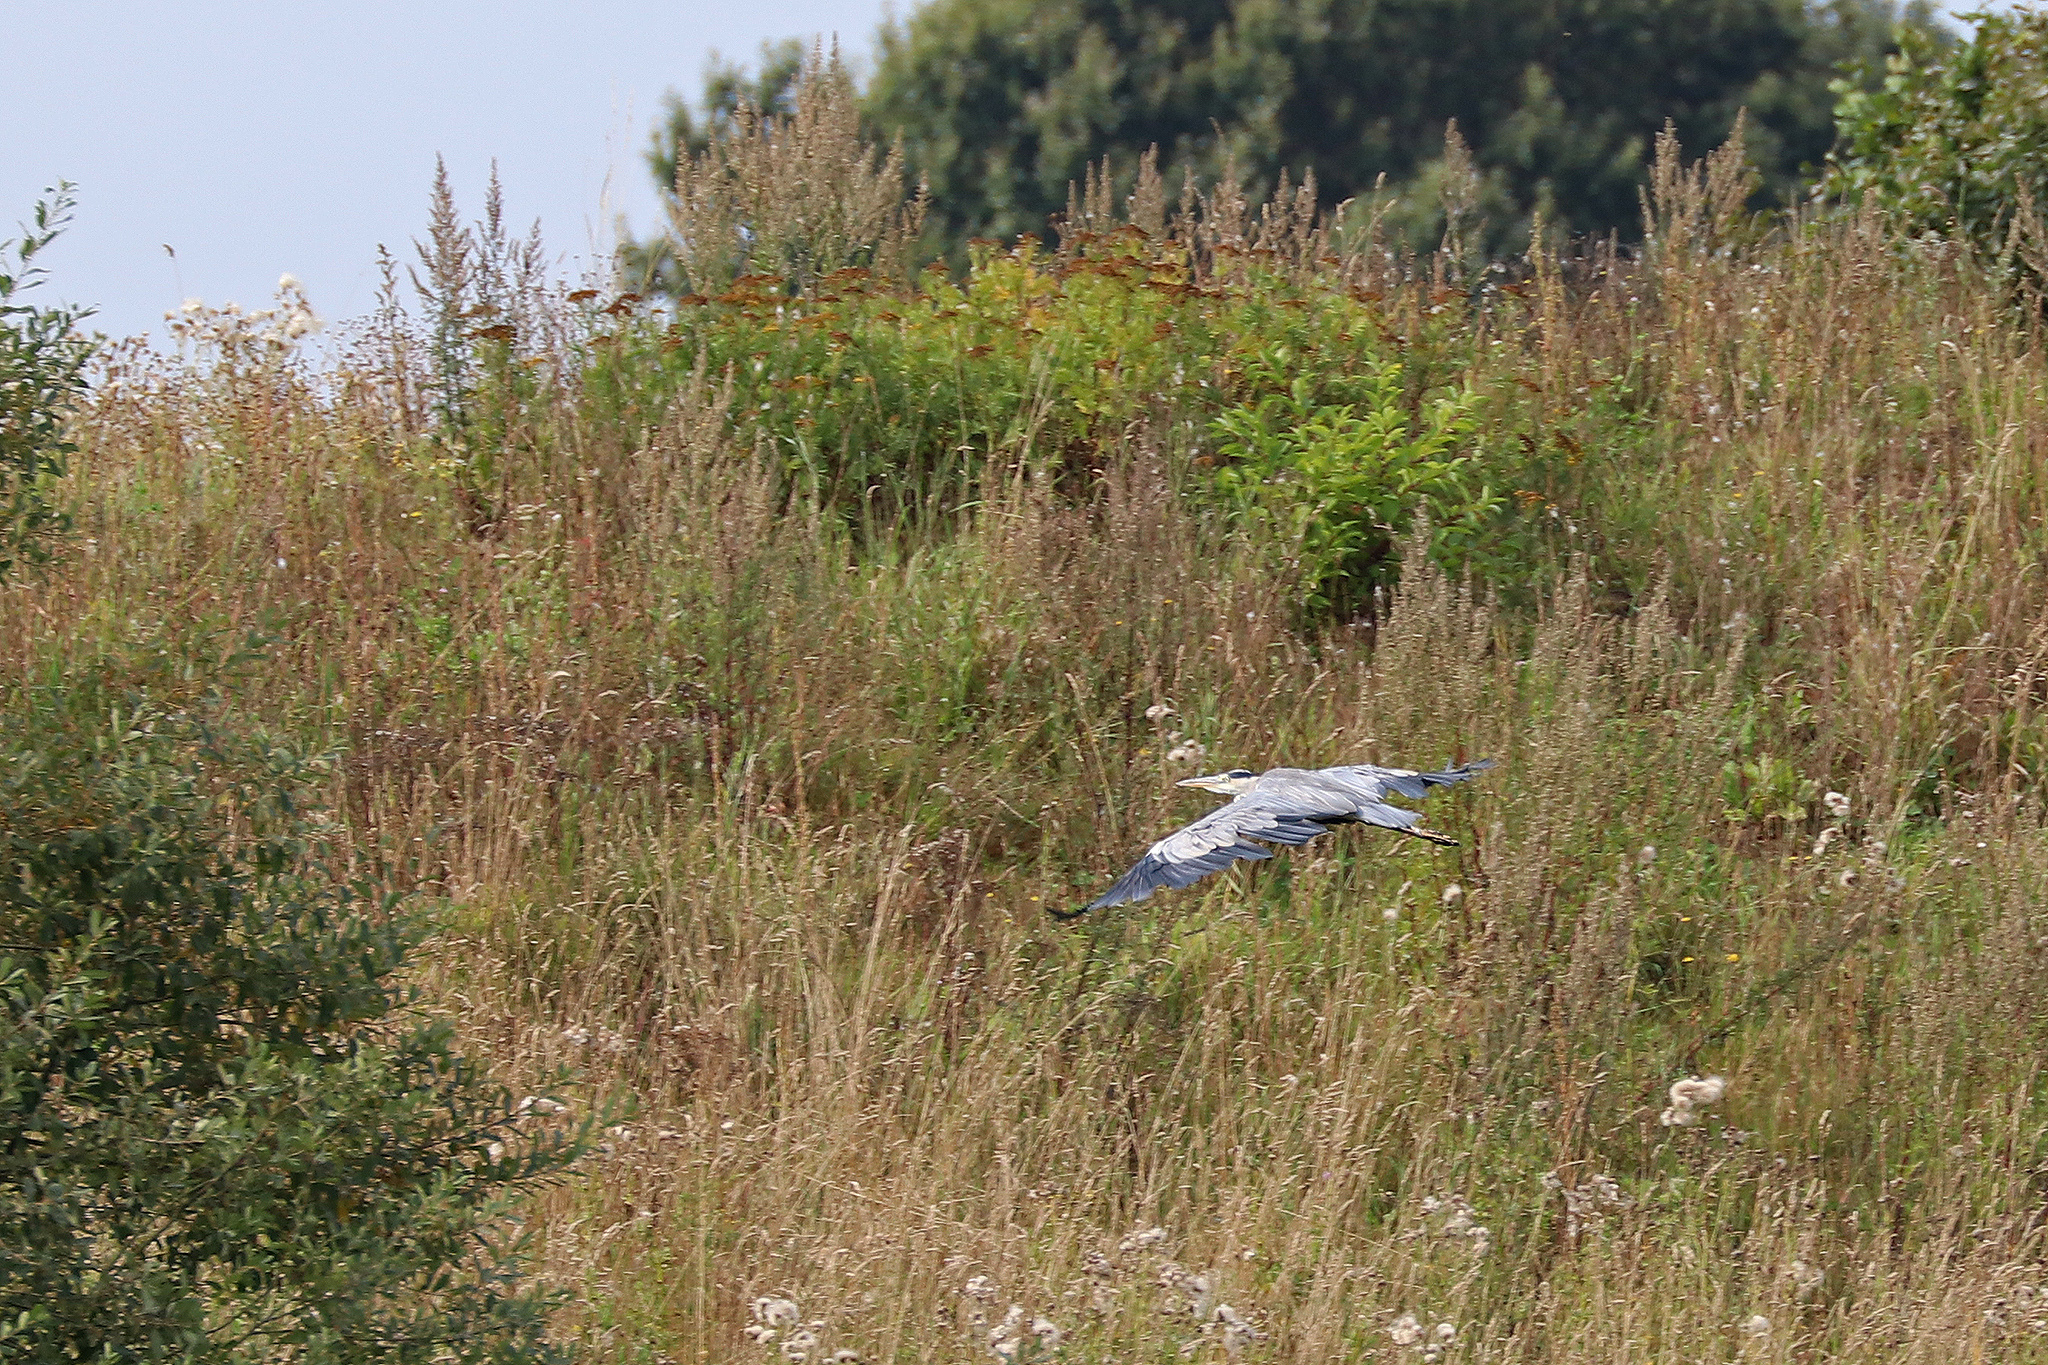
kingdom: Animalia
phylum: Chordata
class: Aves
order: Pelecaniformes
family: Ardeidae
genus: Ardea
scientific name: Ardea cinerea
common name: Grey heron
